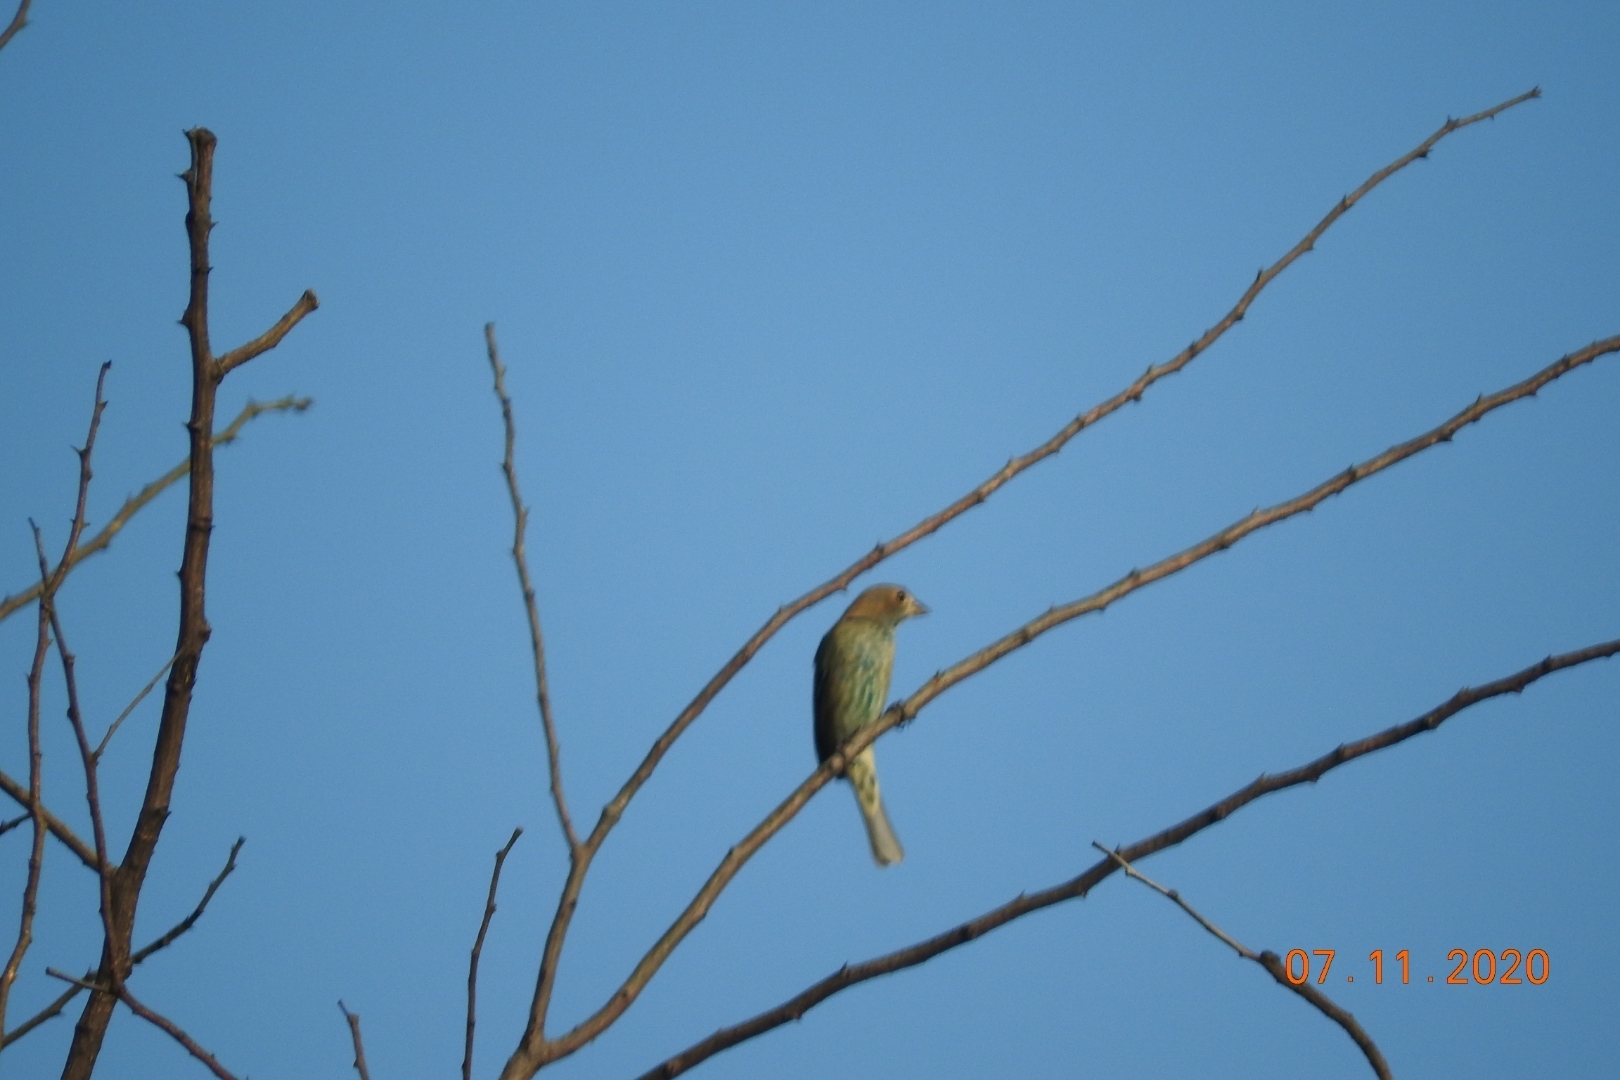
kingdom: Animalia
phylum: Chordata
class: Aves
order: Passeriformes
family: Cardinalidae
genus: Passerina
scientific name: Passerina cyanea
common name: Indigo bunting
